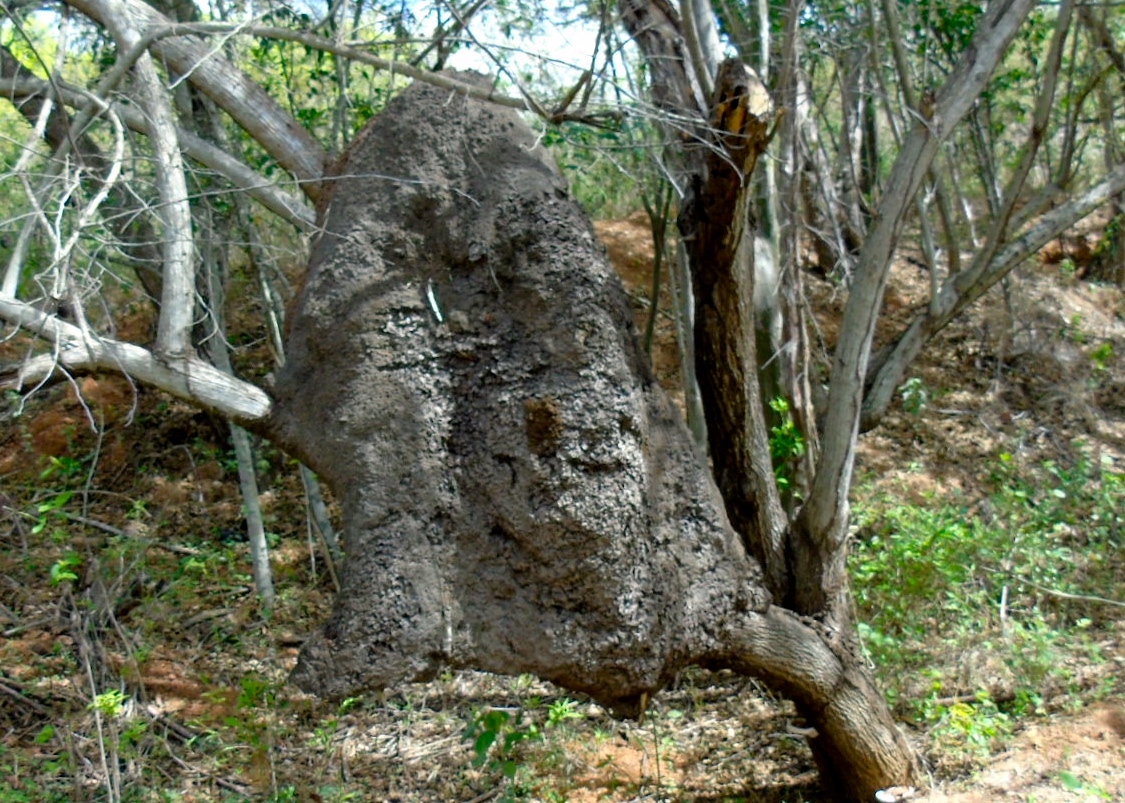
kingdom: Animalia
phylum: Arthropoda
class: Insecta
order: Blattodea
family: Termitidae
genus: Nasutitermes
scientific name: Nasutitermes nigriceps
